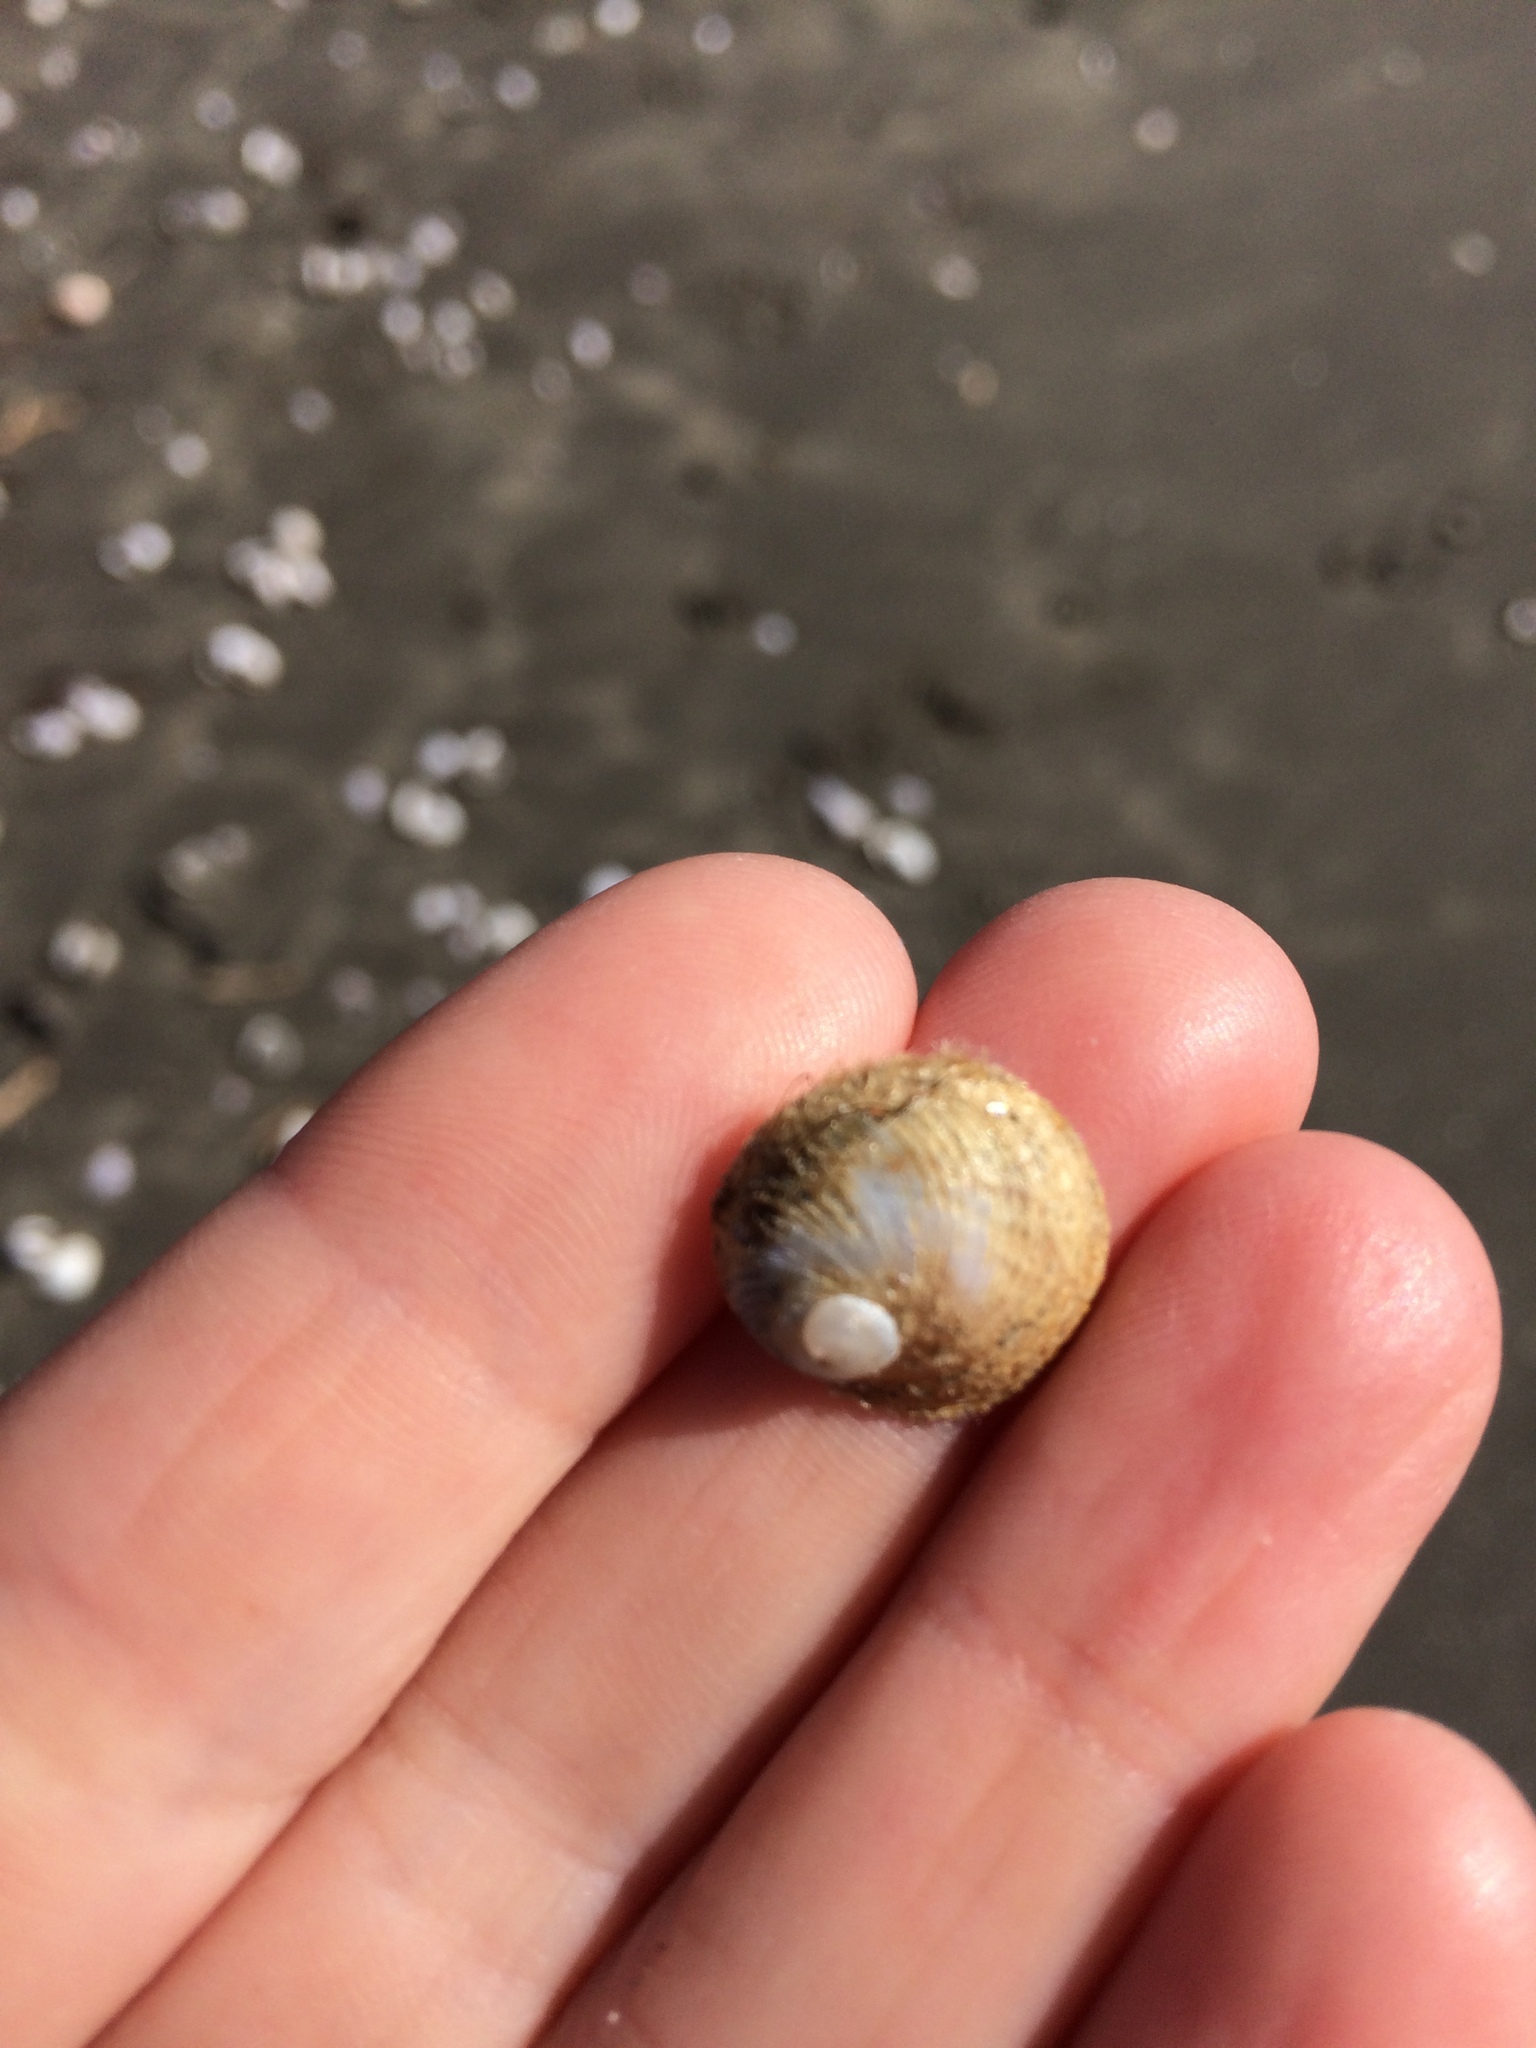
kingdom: Animalia
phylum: Mollusca
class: Gastropoda
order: Littorinimorpha
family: Calyptraeidae
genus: Sigapatella
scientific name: Sigapatella novaezelandiae
